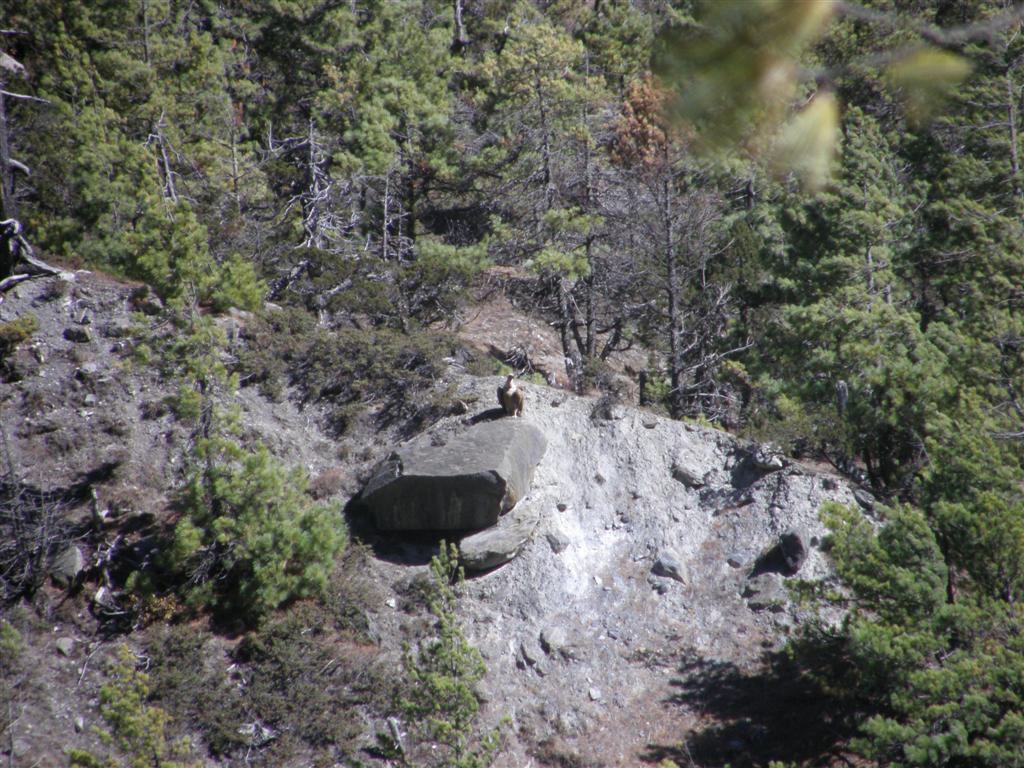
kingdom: Animalia
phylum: Chordata
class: Aves
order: Accipitriformes
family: Accipitridae
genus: Gyps
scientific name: Gyps himalayensis
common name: Himalayan griffon
